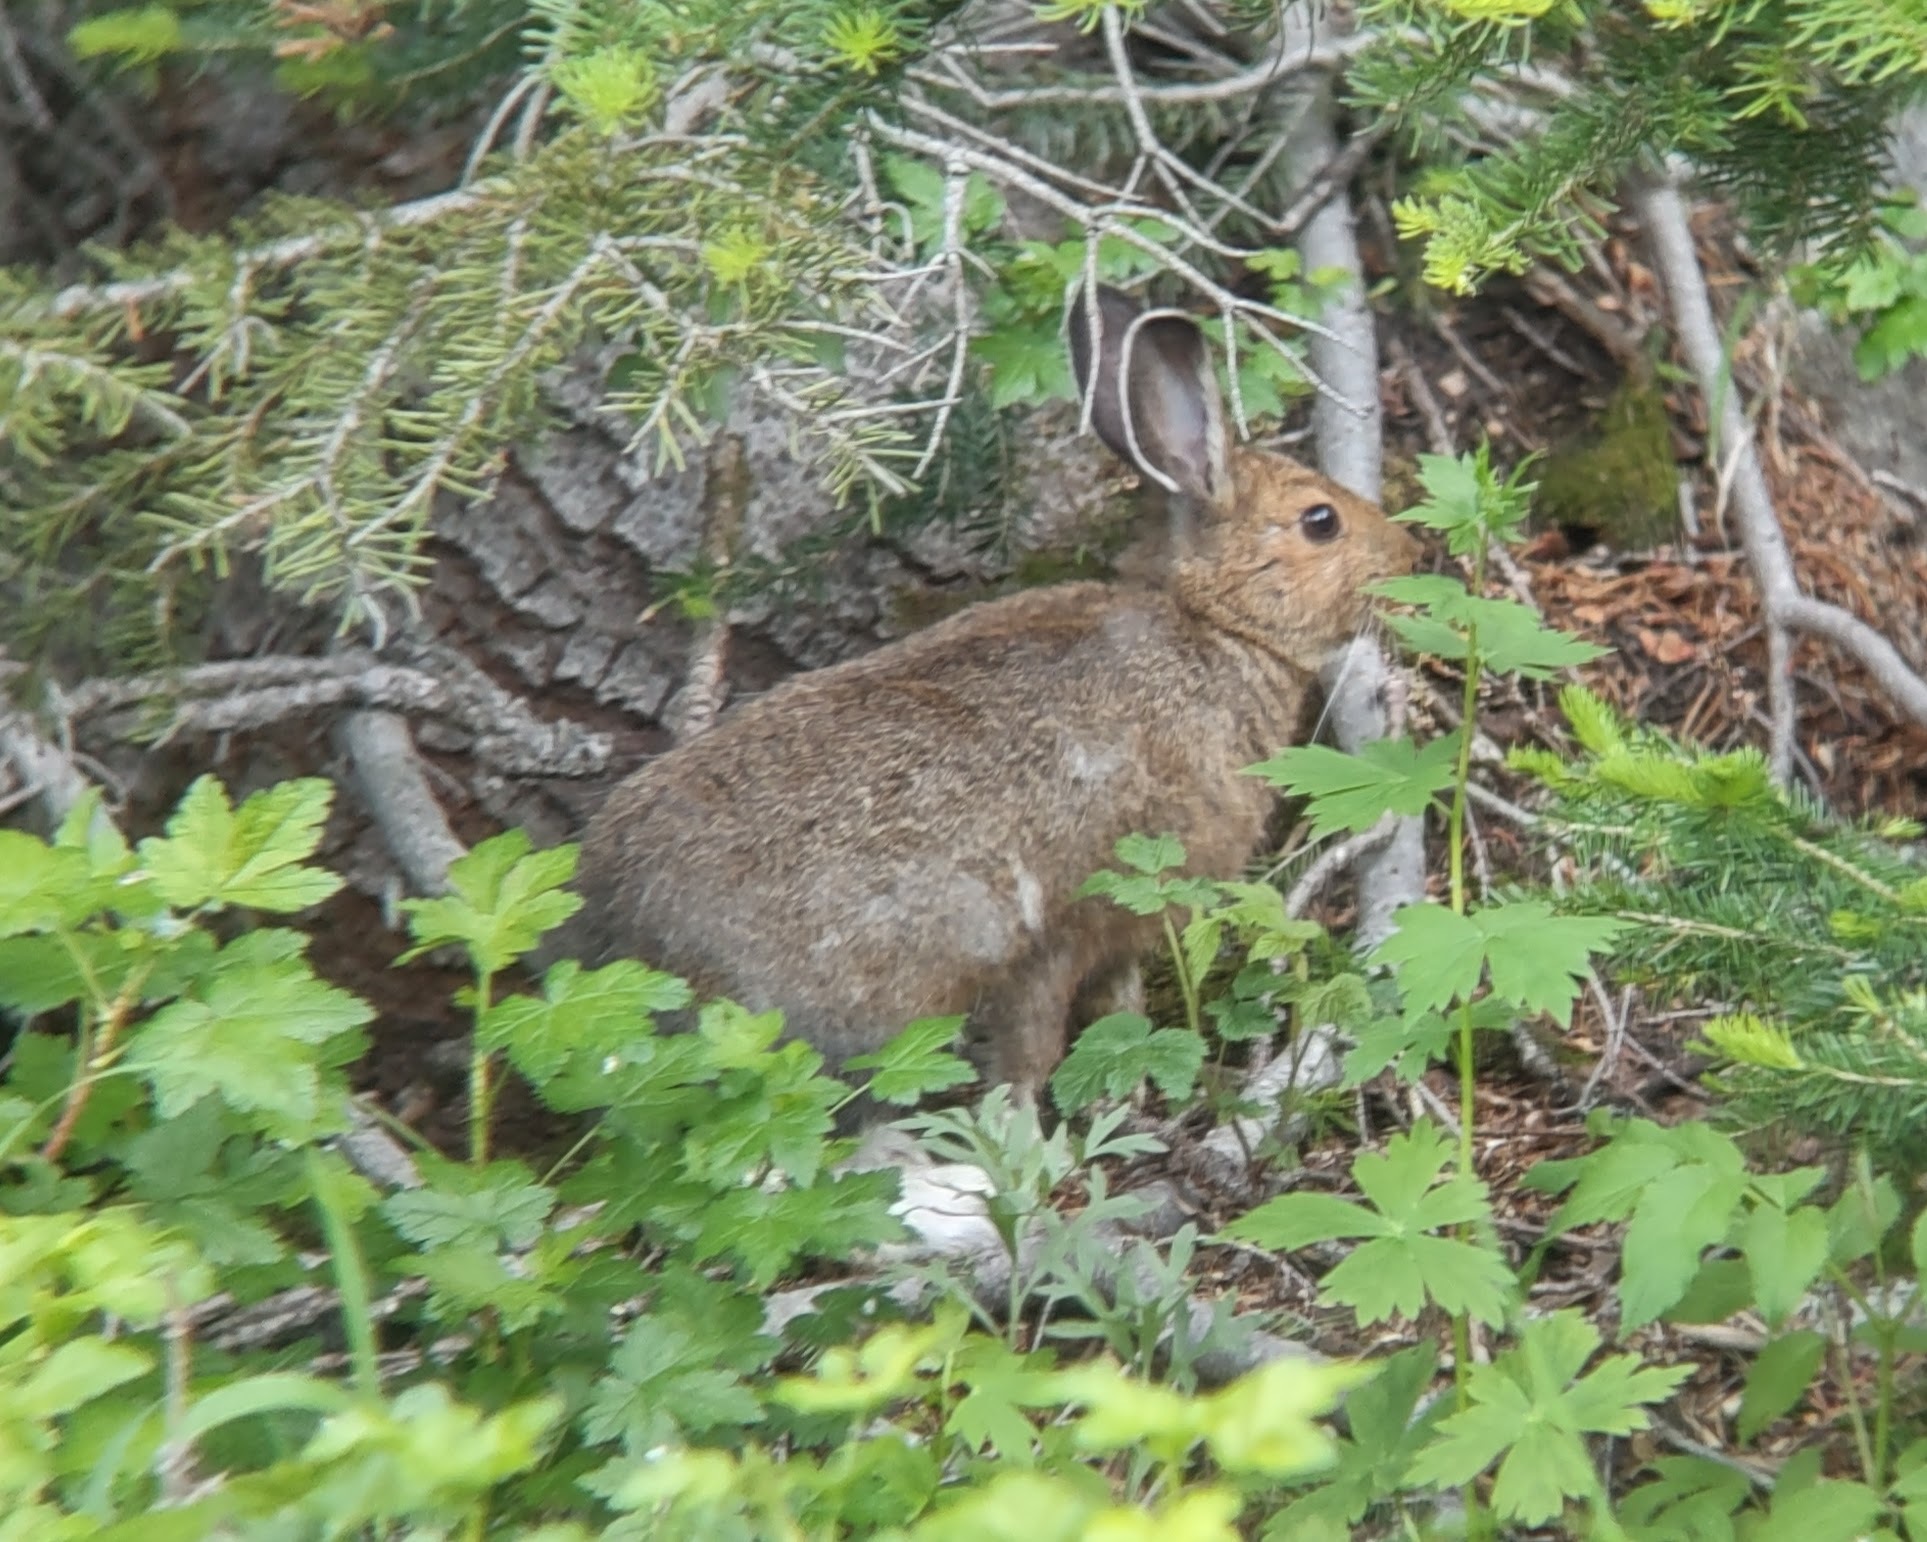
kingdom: Animalia
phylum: Chordata
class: Mammalia
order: Lagomorpha
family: Leporidae
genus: Lepus
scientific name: Lepus americanus
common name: Snowshoe hare
